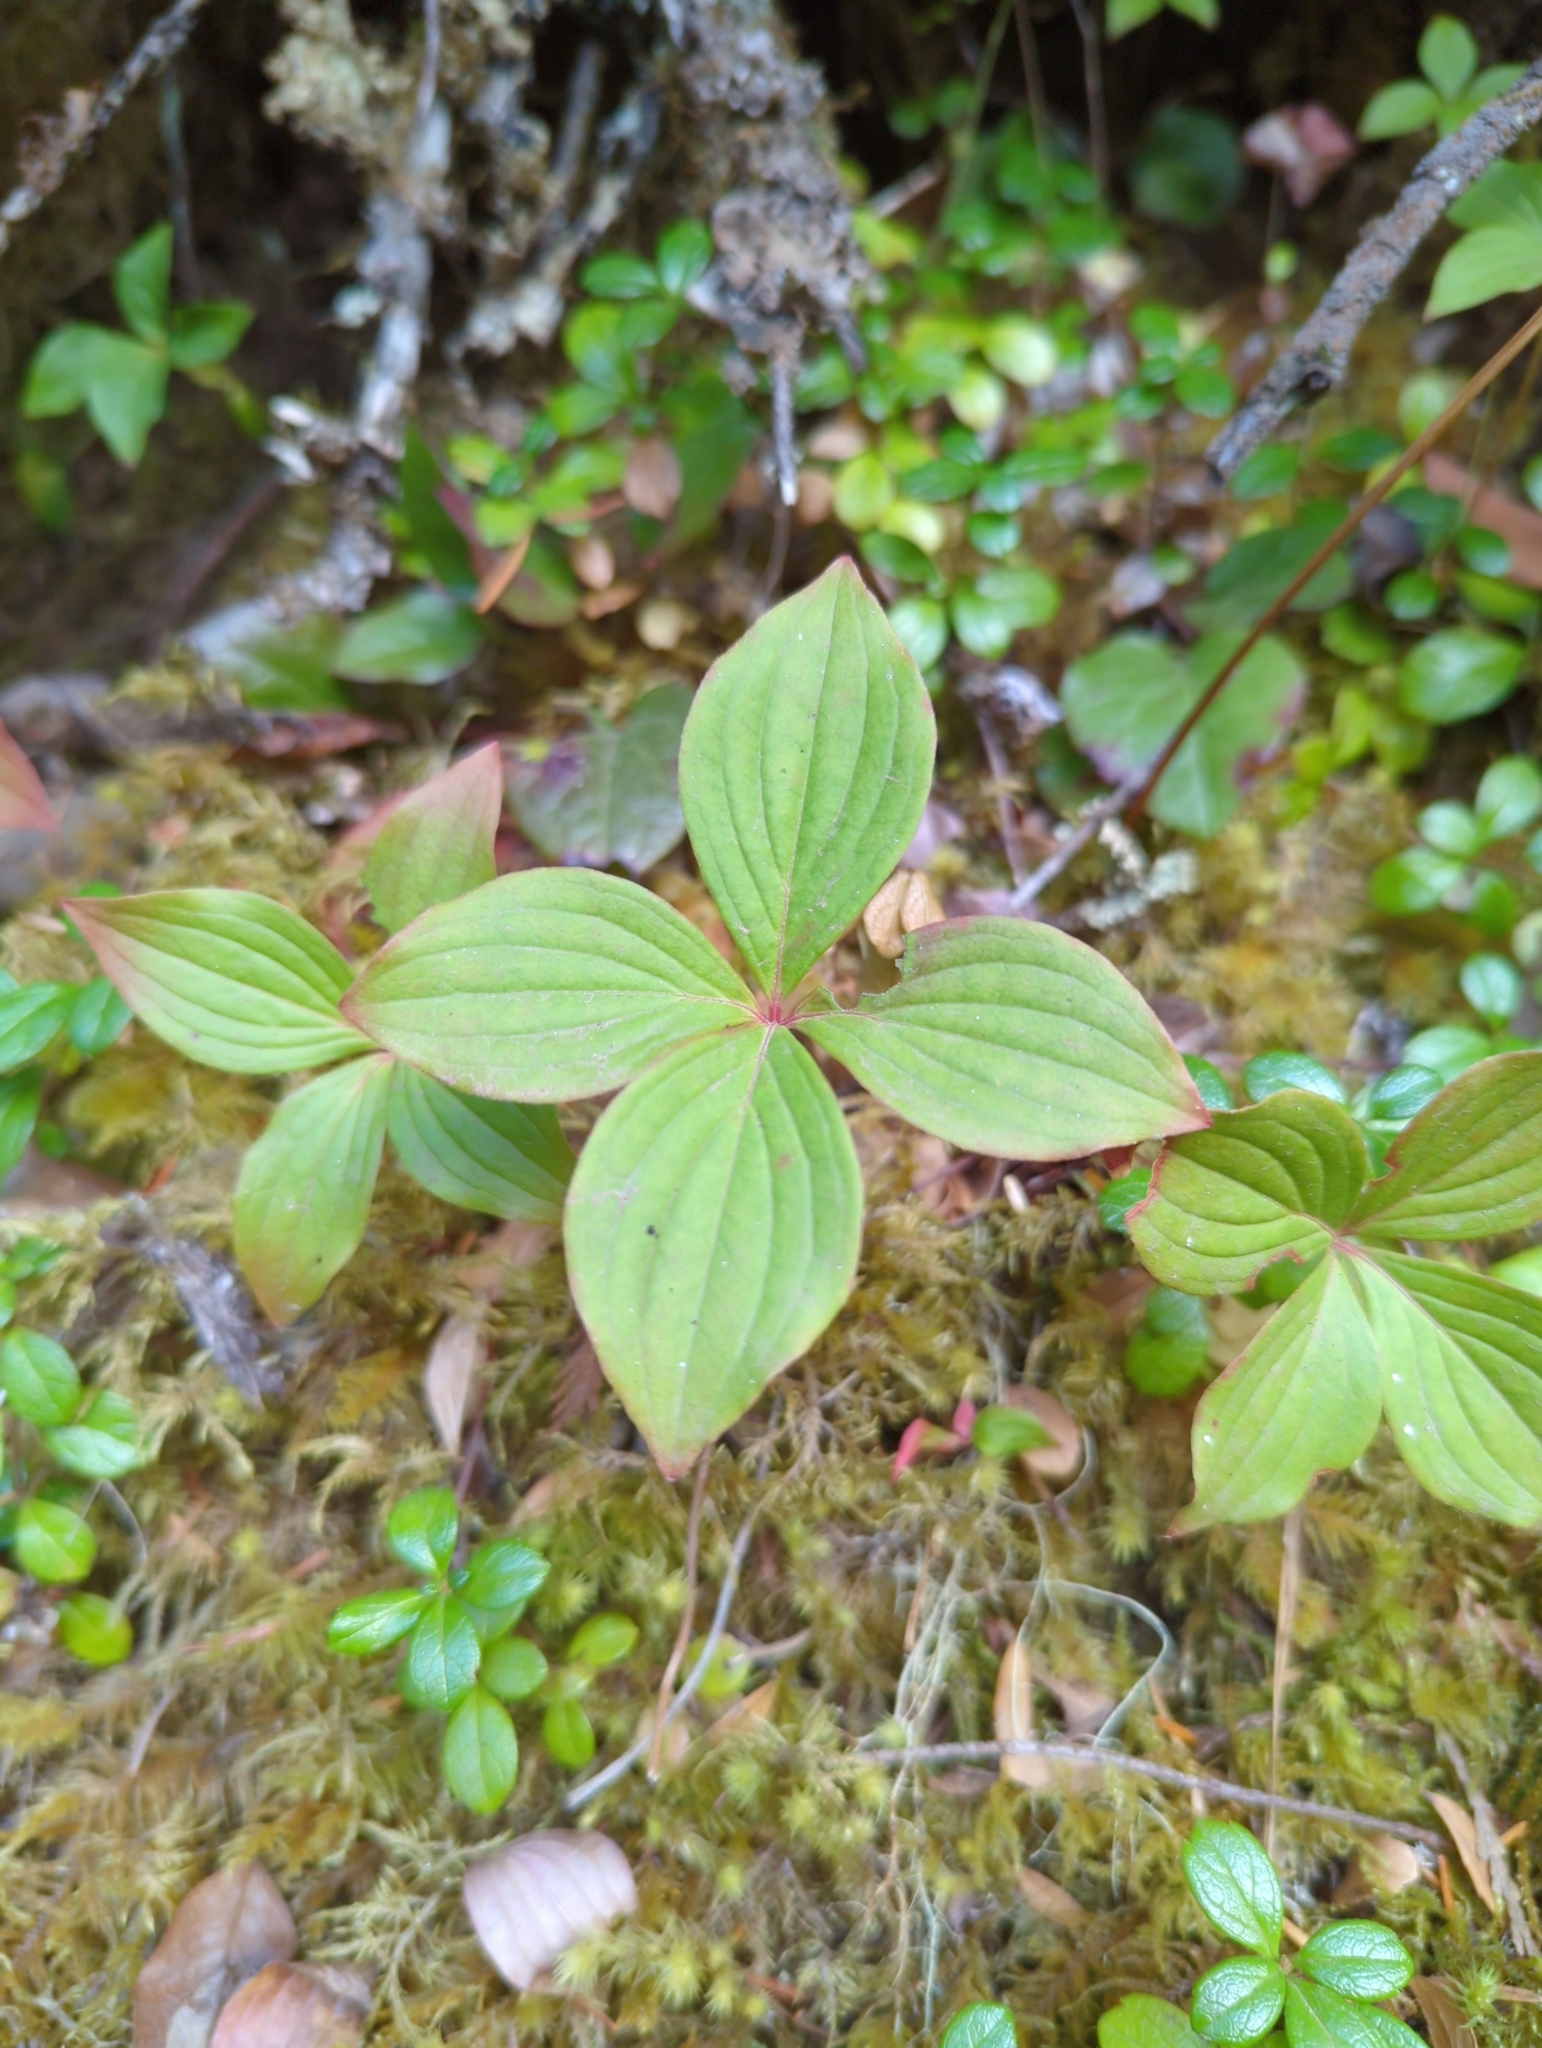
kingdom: Plantae
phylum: Tracheophyta
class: Magnoliopsida
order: Cornales
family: Cornaceae
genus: Cornus
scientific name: Cornus unalaschkensis
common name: Alaska bunchberry
